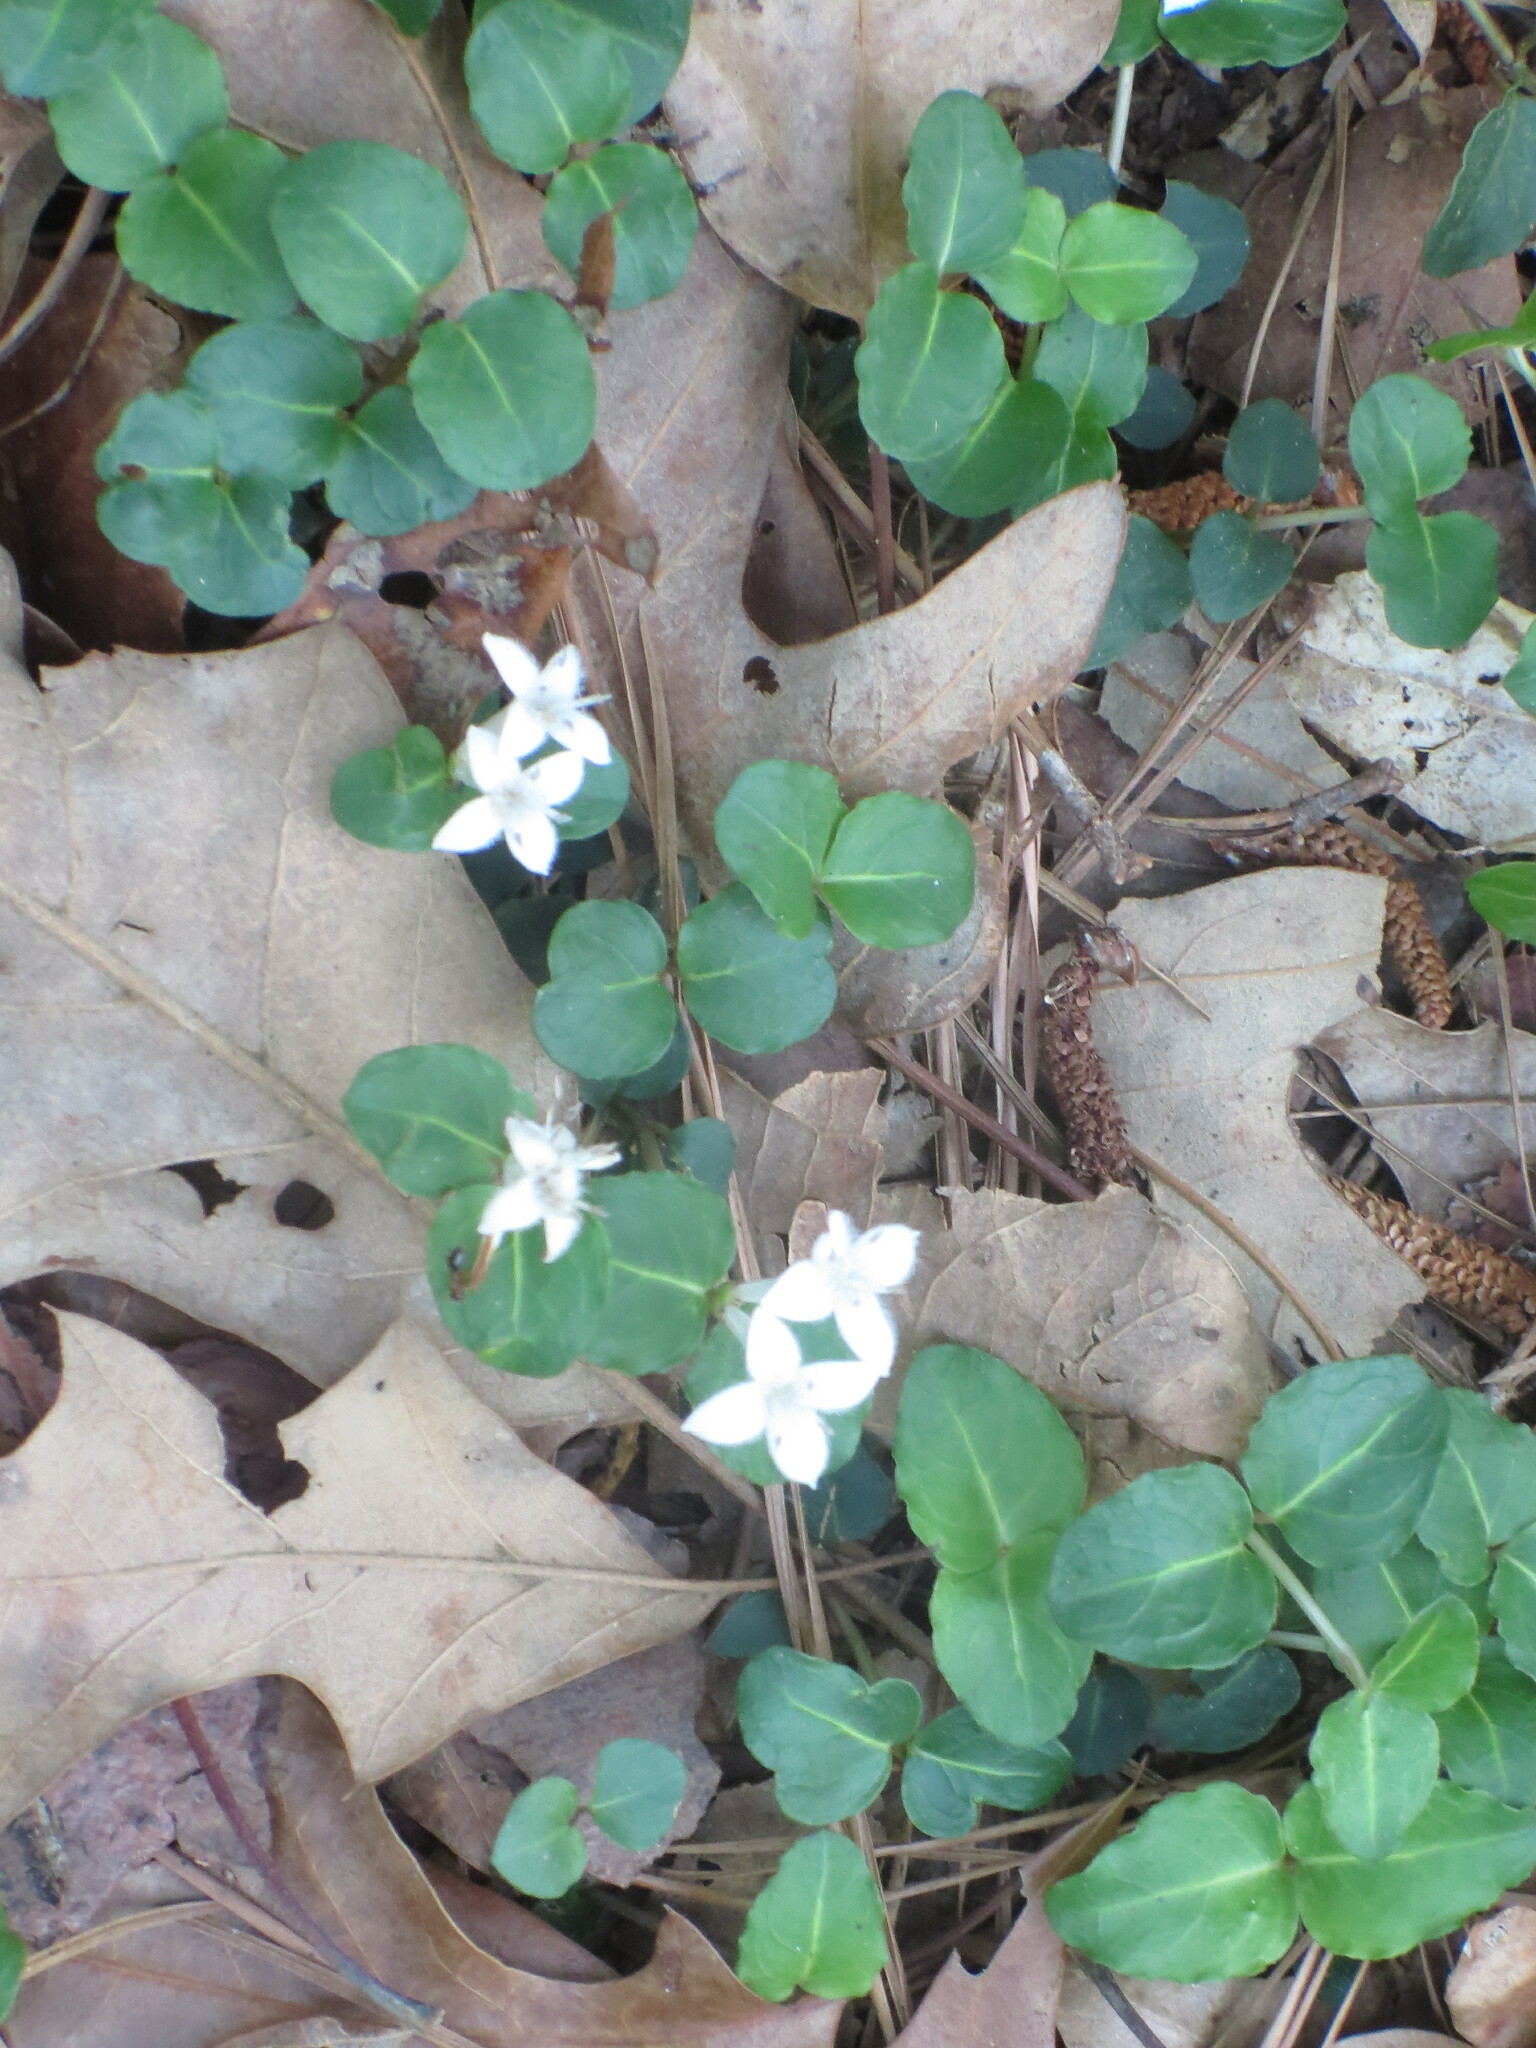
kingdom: Plantae
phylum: Tracheophyta
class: Magnoliopsida
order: Gentianales
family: Rubiaceae
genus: Mitchella
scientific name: Mitchella repens
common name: Partridge-berry
